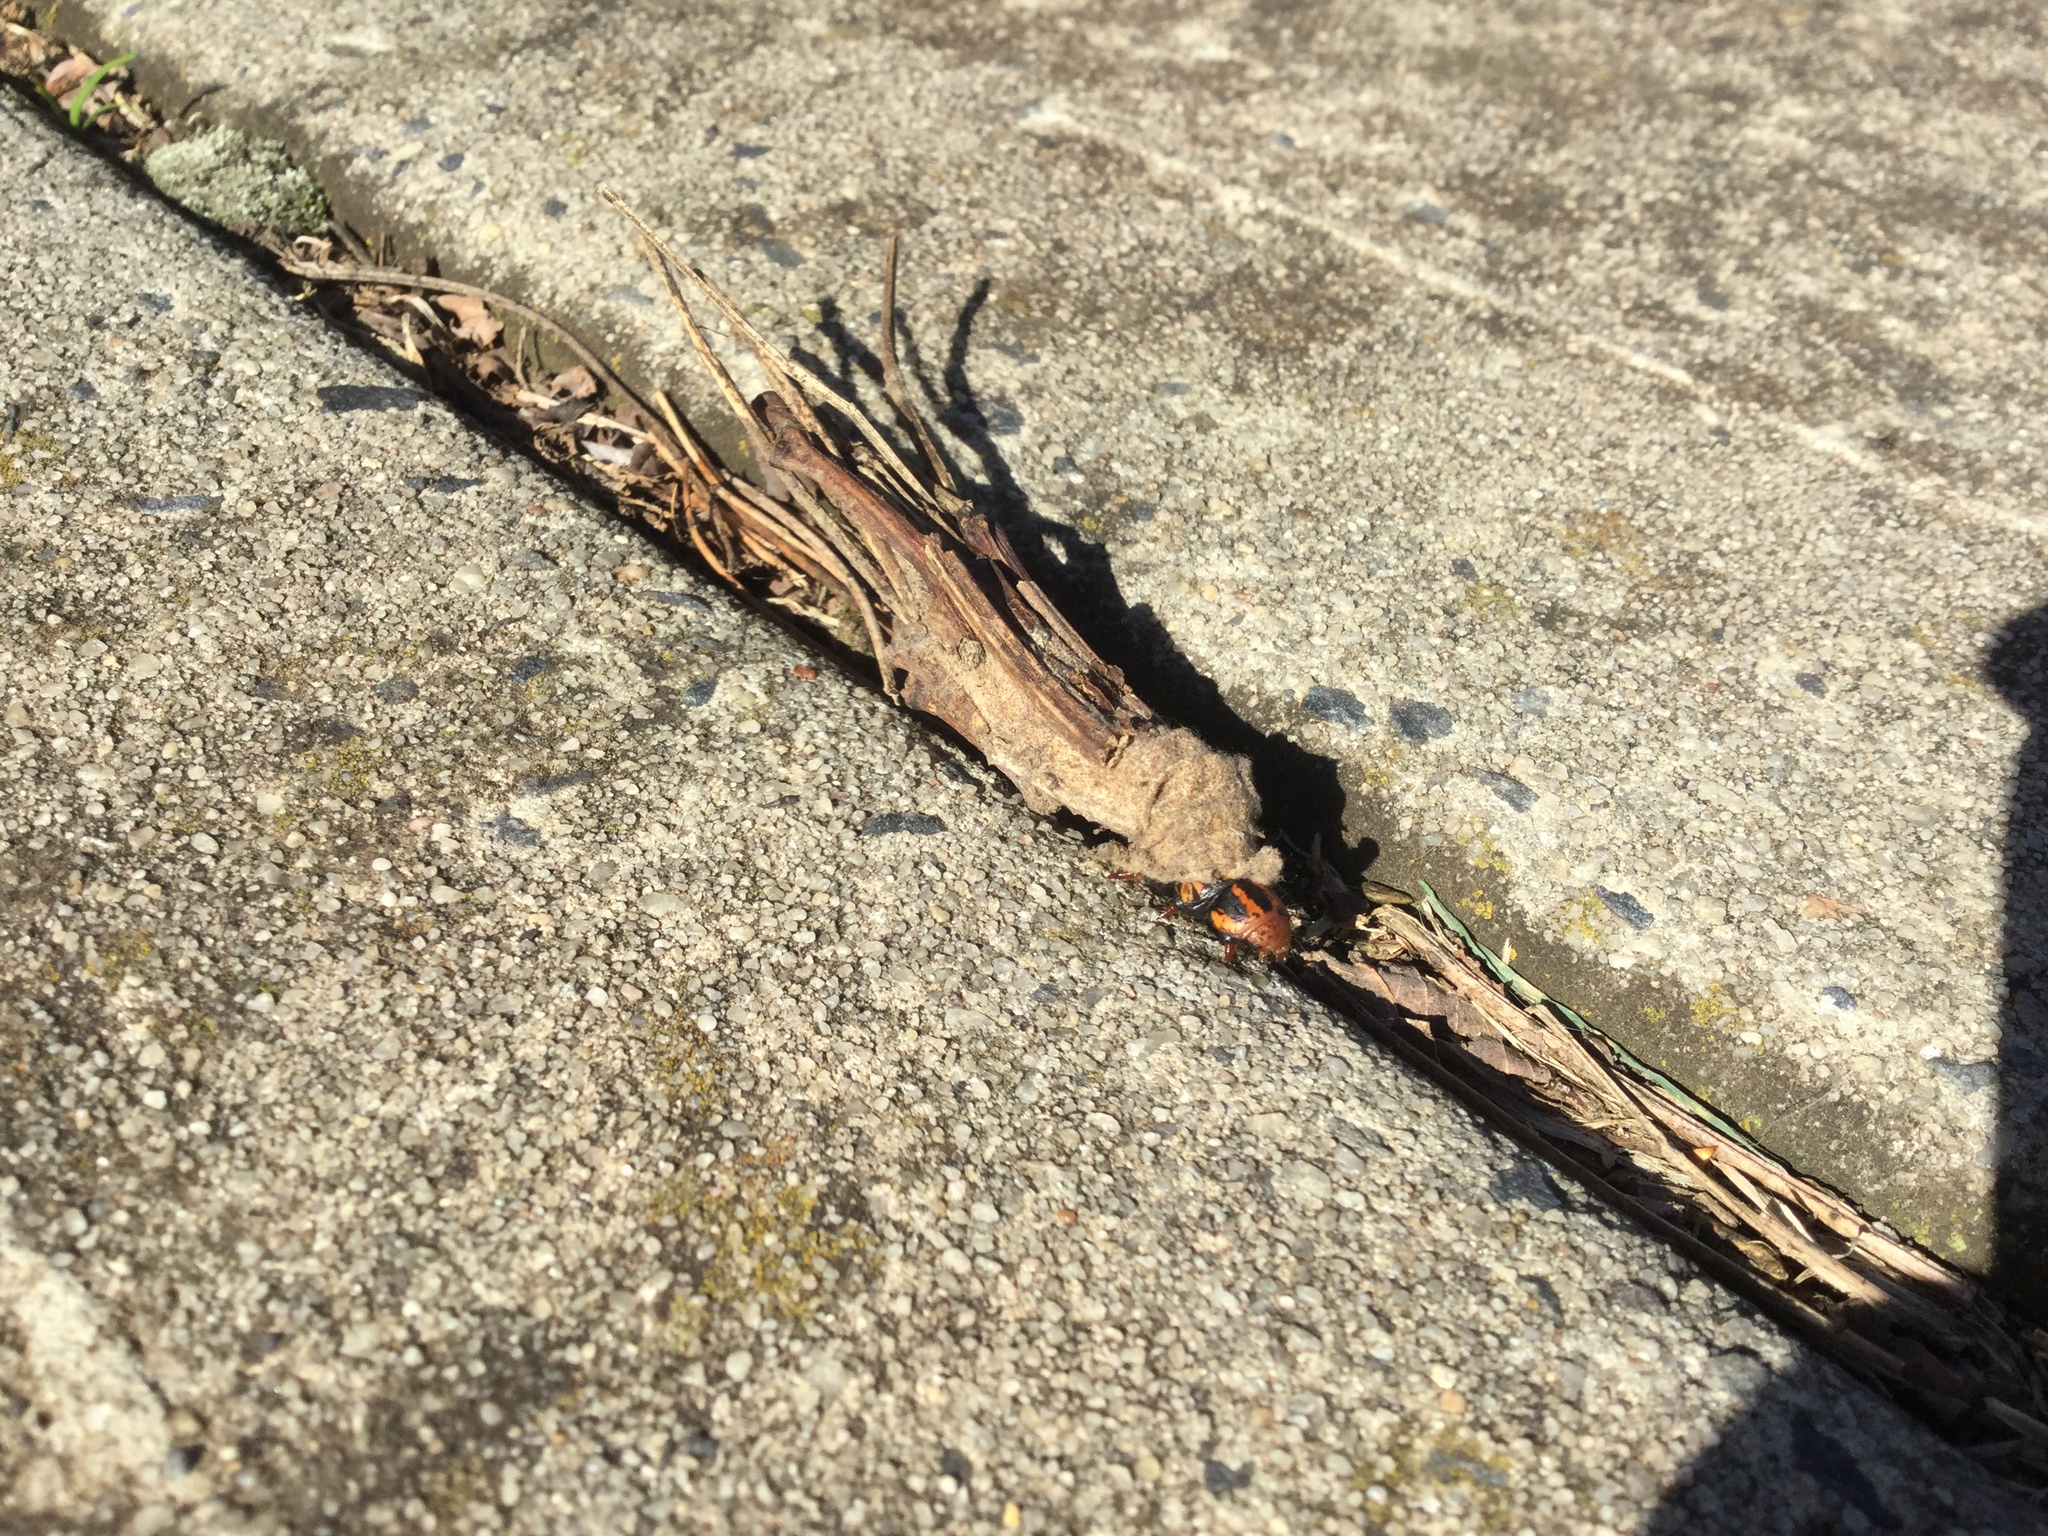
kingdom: Animalia
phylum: Arthropoda
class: Insecta
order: Lepidoptera
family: Psychidae
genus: Metura
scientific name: Metura elongatus
